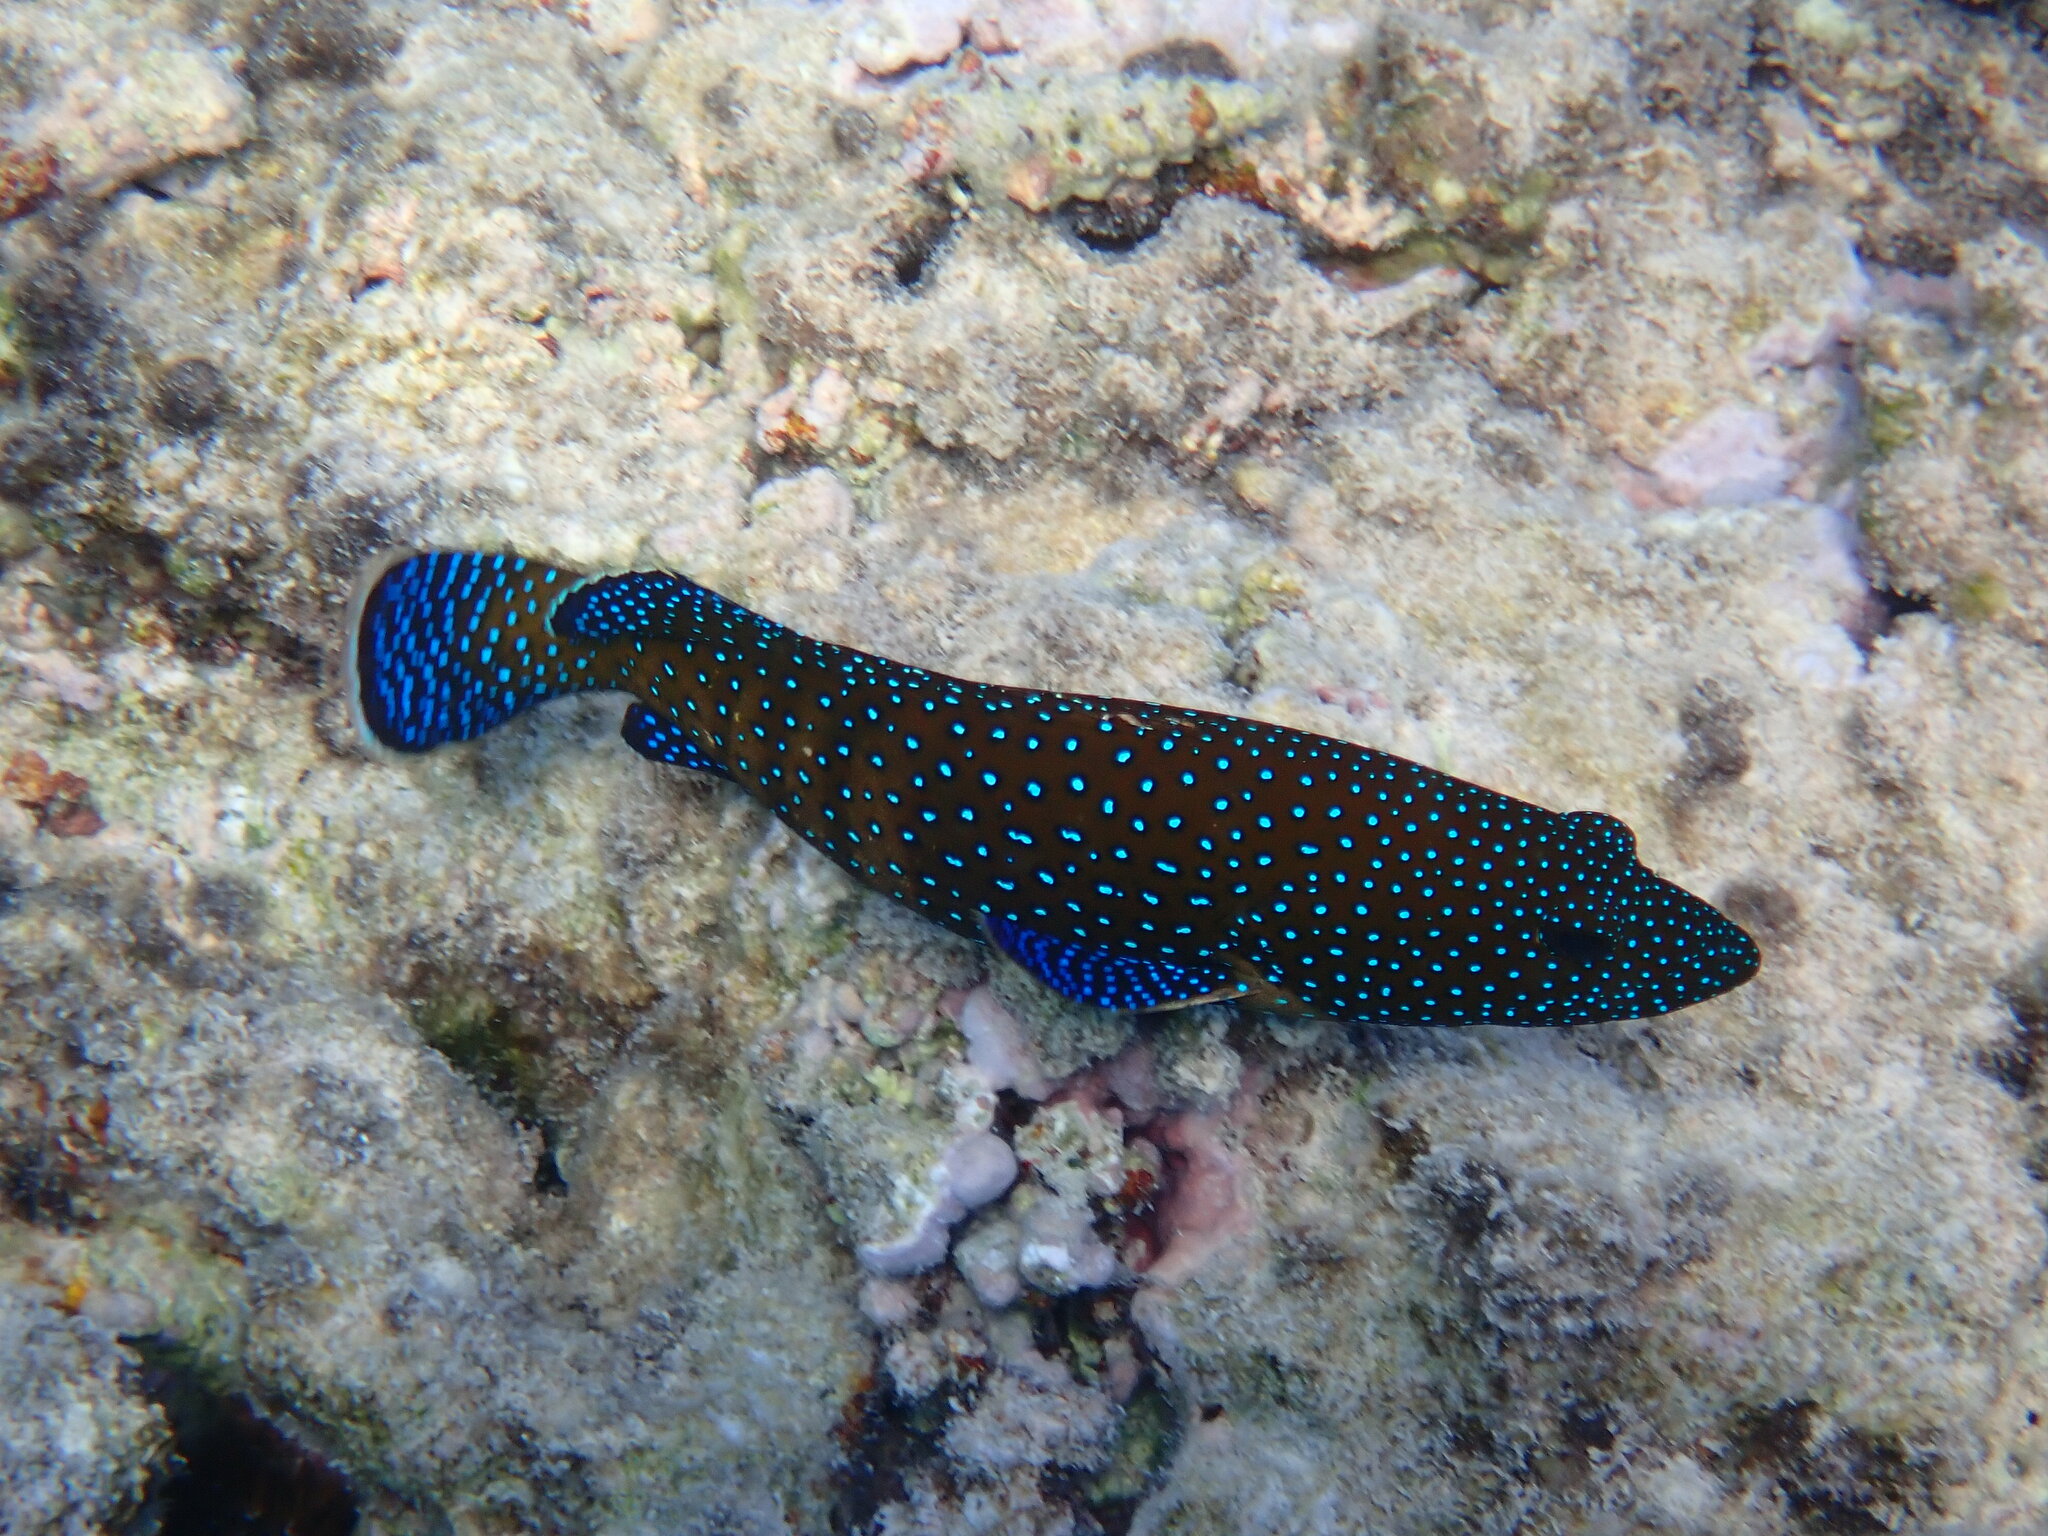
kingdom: Animalia
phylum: Chordata
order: Perciformes
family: Serranidae
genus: Cephalopholis
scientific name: Cephalopholis argus
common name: Peacock grouper
